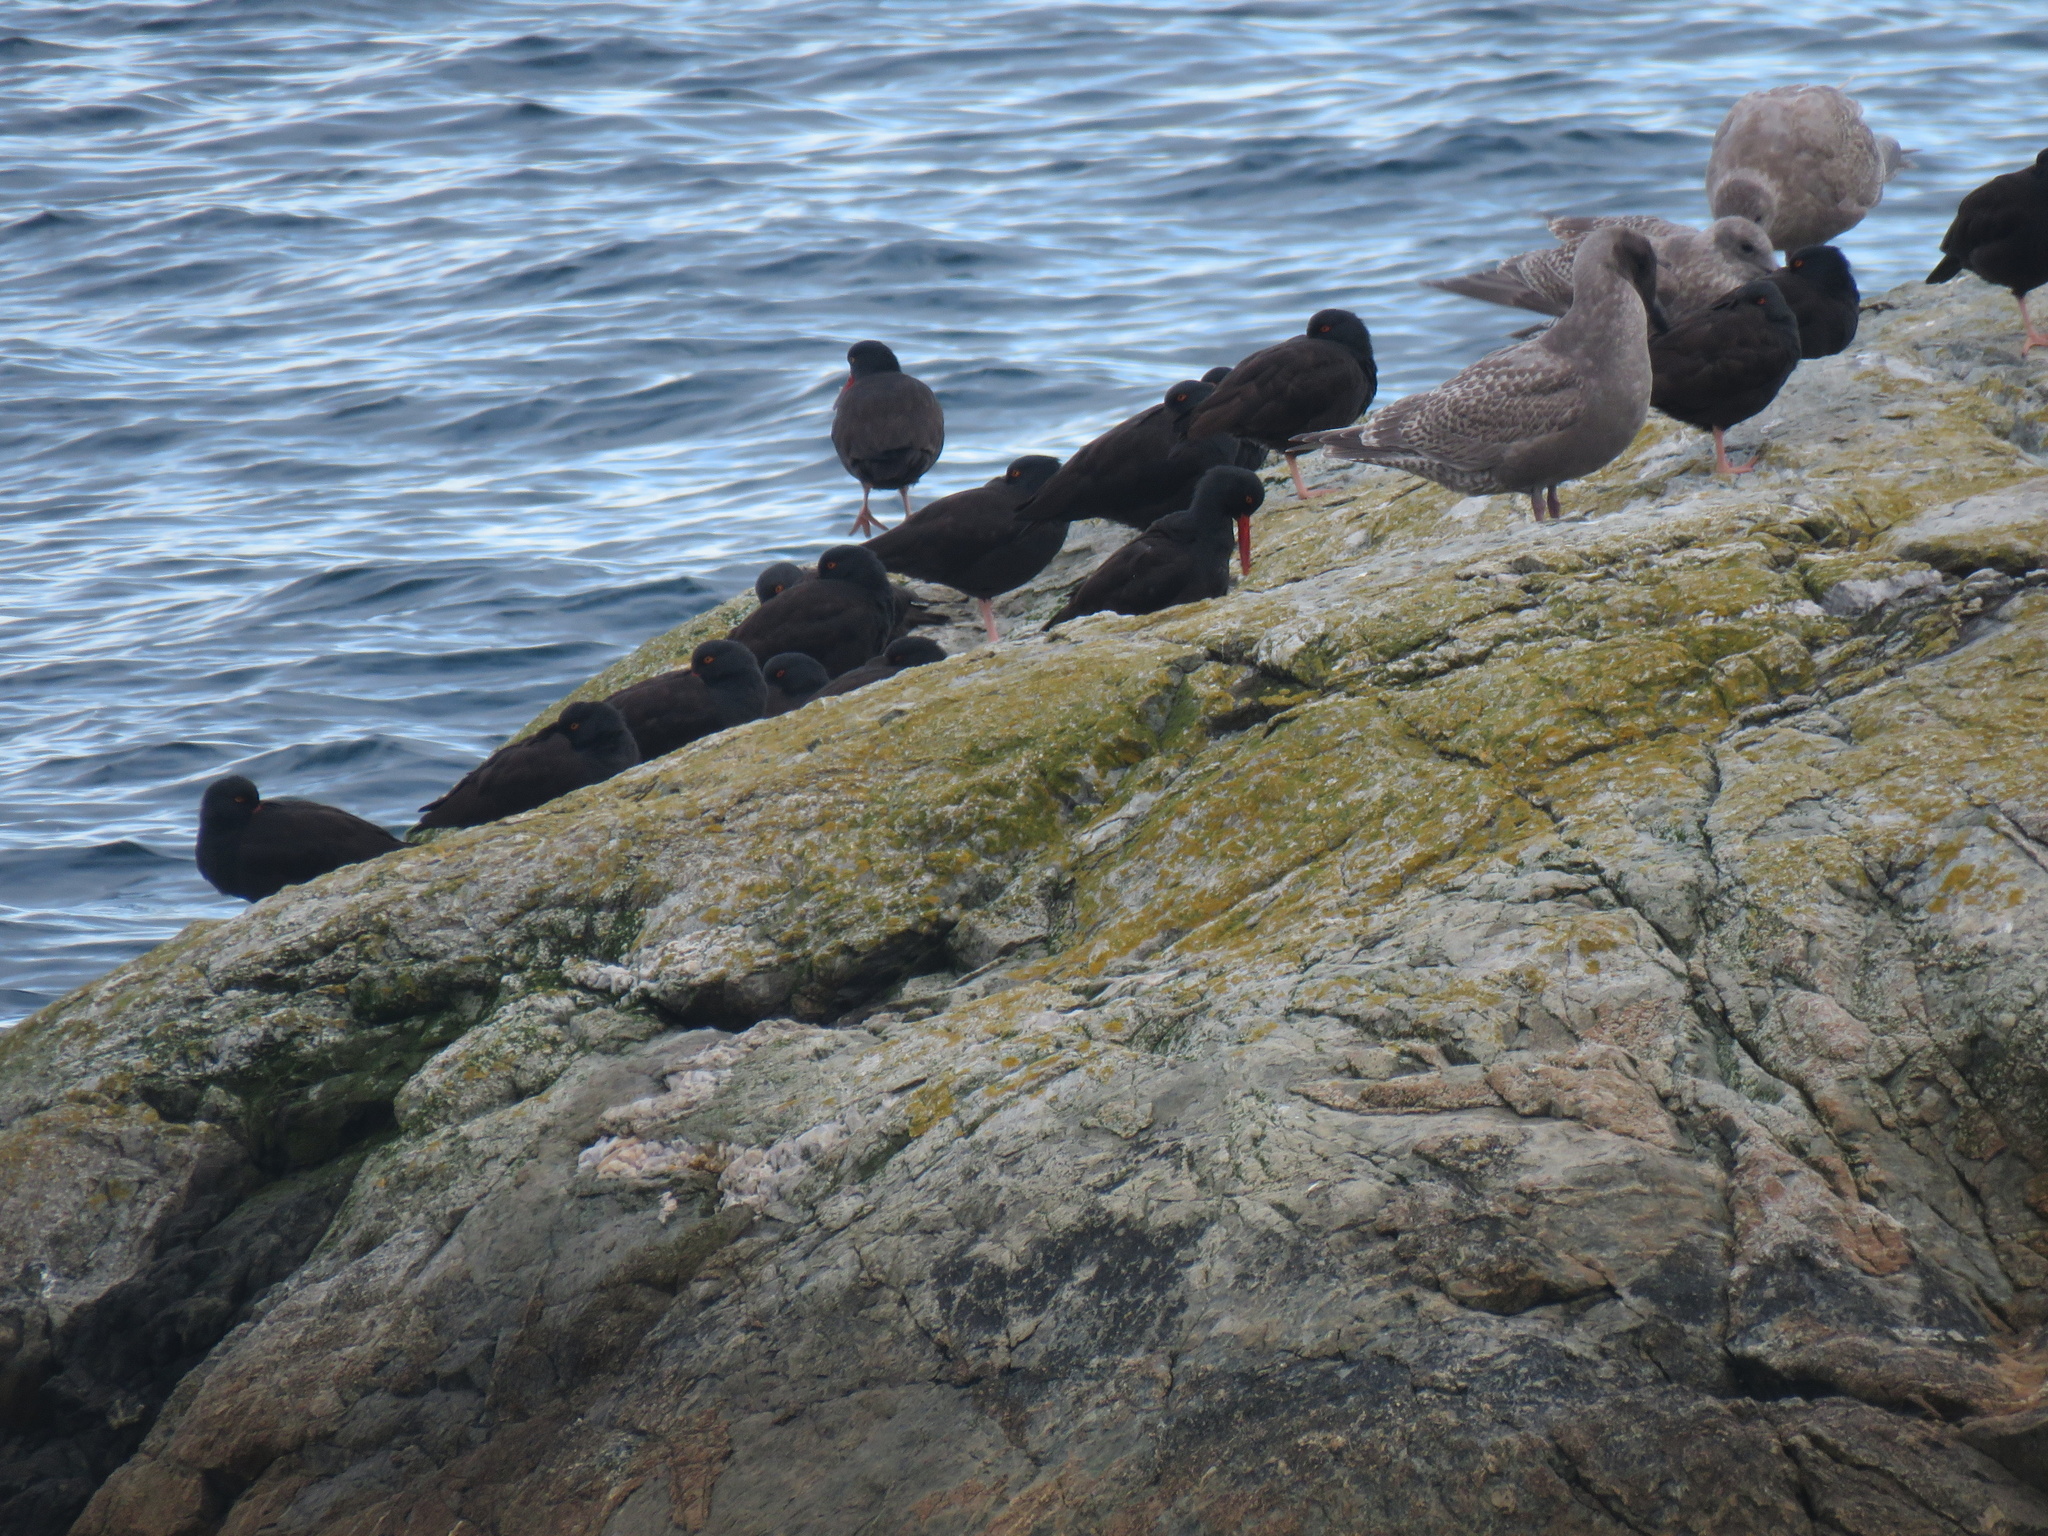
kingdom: Animalia
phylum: Chordata
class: Aves
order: Charadriiformes
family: Haematopodidae
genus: Haematopus
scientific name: Haematopus bachmani
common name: Black oystercatcher
